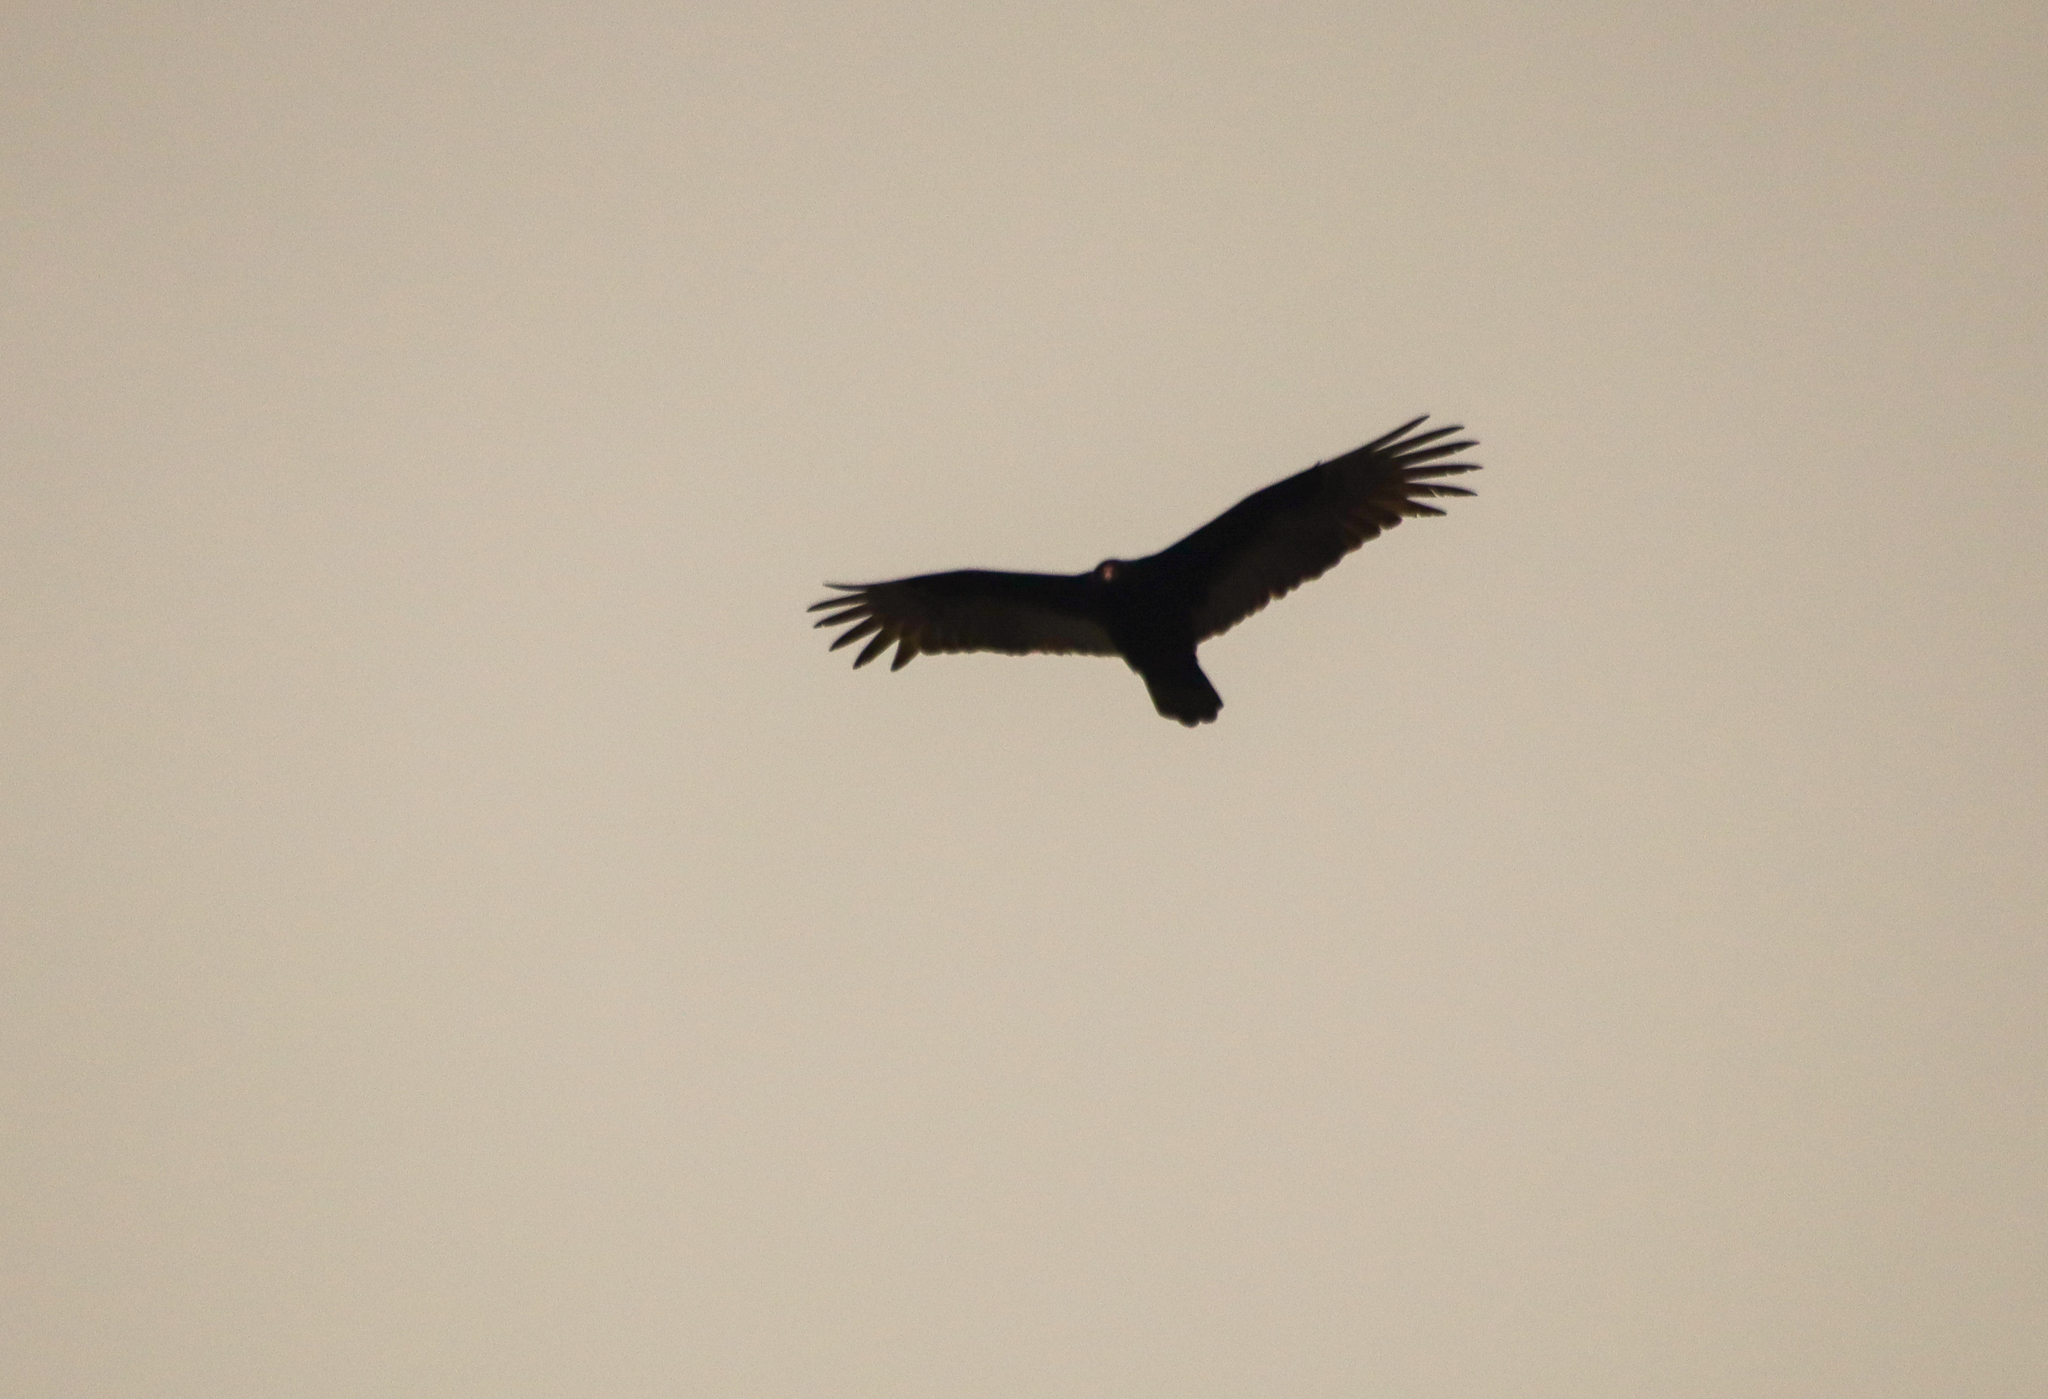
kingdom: Animalia
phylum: Chordata
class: Aves
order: Accipitriformes
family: Cathartidae
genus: Cathartes
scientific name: Cathartes aura
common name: Turkey vulture
